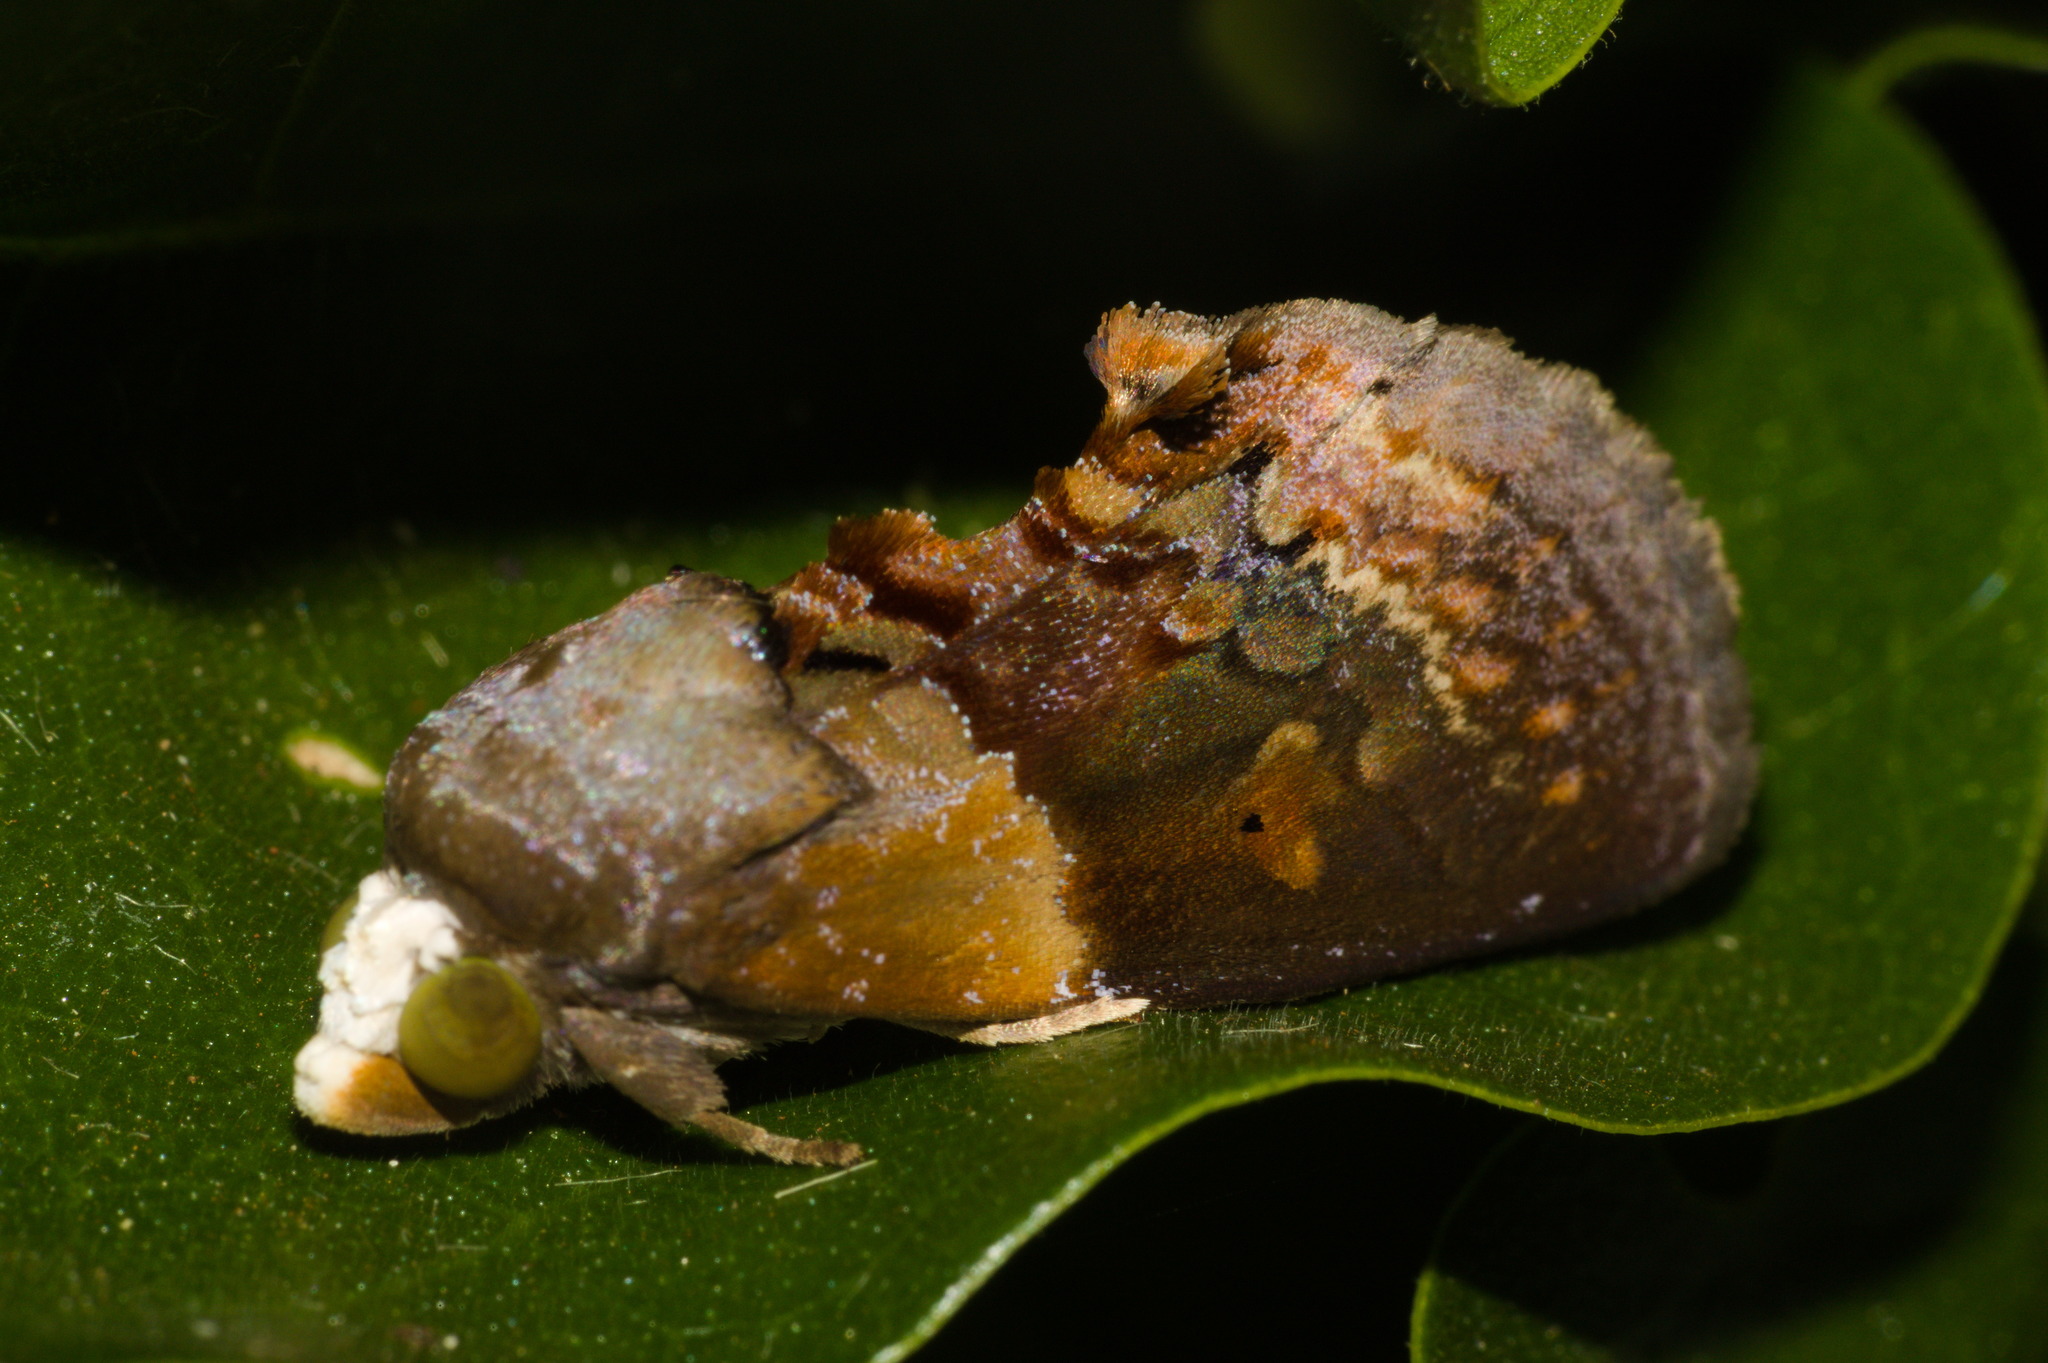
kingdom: Animalia
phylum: Arthropoda
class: Insecta
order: Lepidoptera
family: Erebidae
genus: Gonodonta
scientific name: Gonodonta bidens
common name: Cutworm moth
